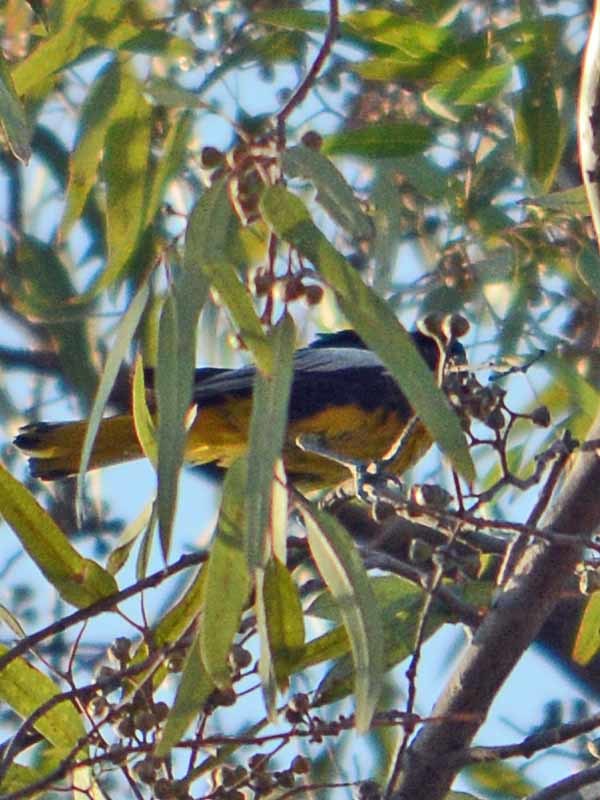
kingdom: Animalia
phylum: Chordata
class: Aves
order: Passeriformes
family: Icteridae
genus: Icterus
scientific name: Icterus abeillei
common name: Black-backed oriole
